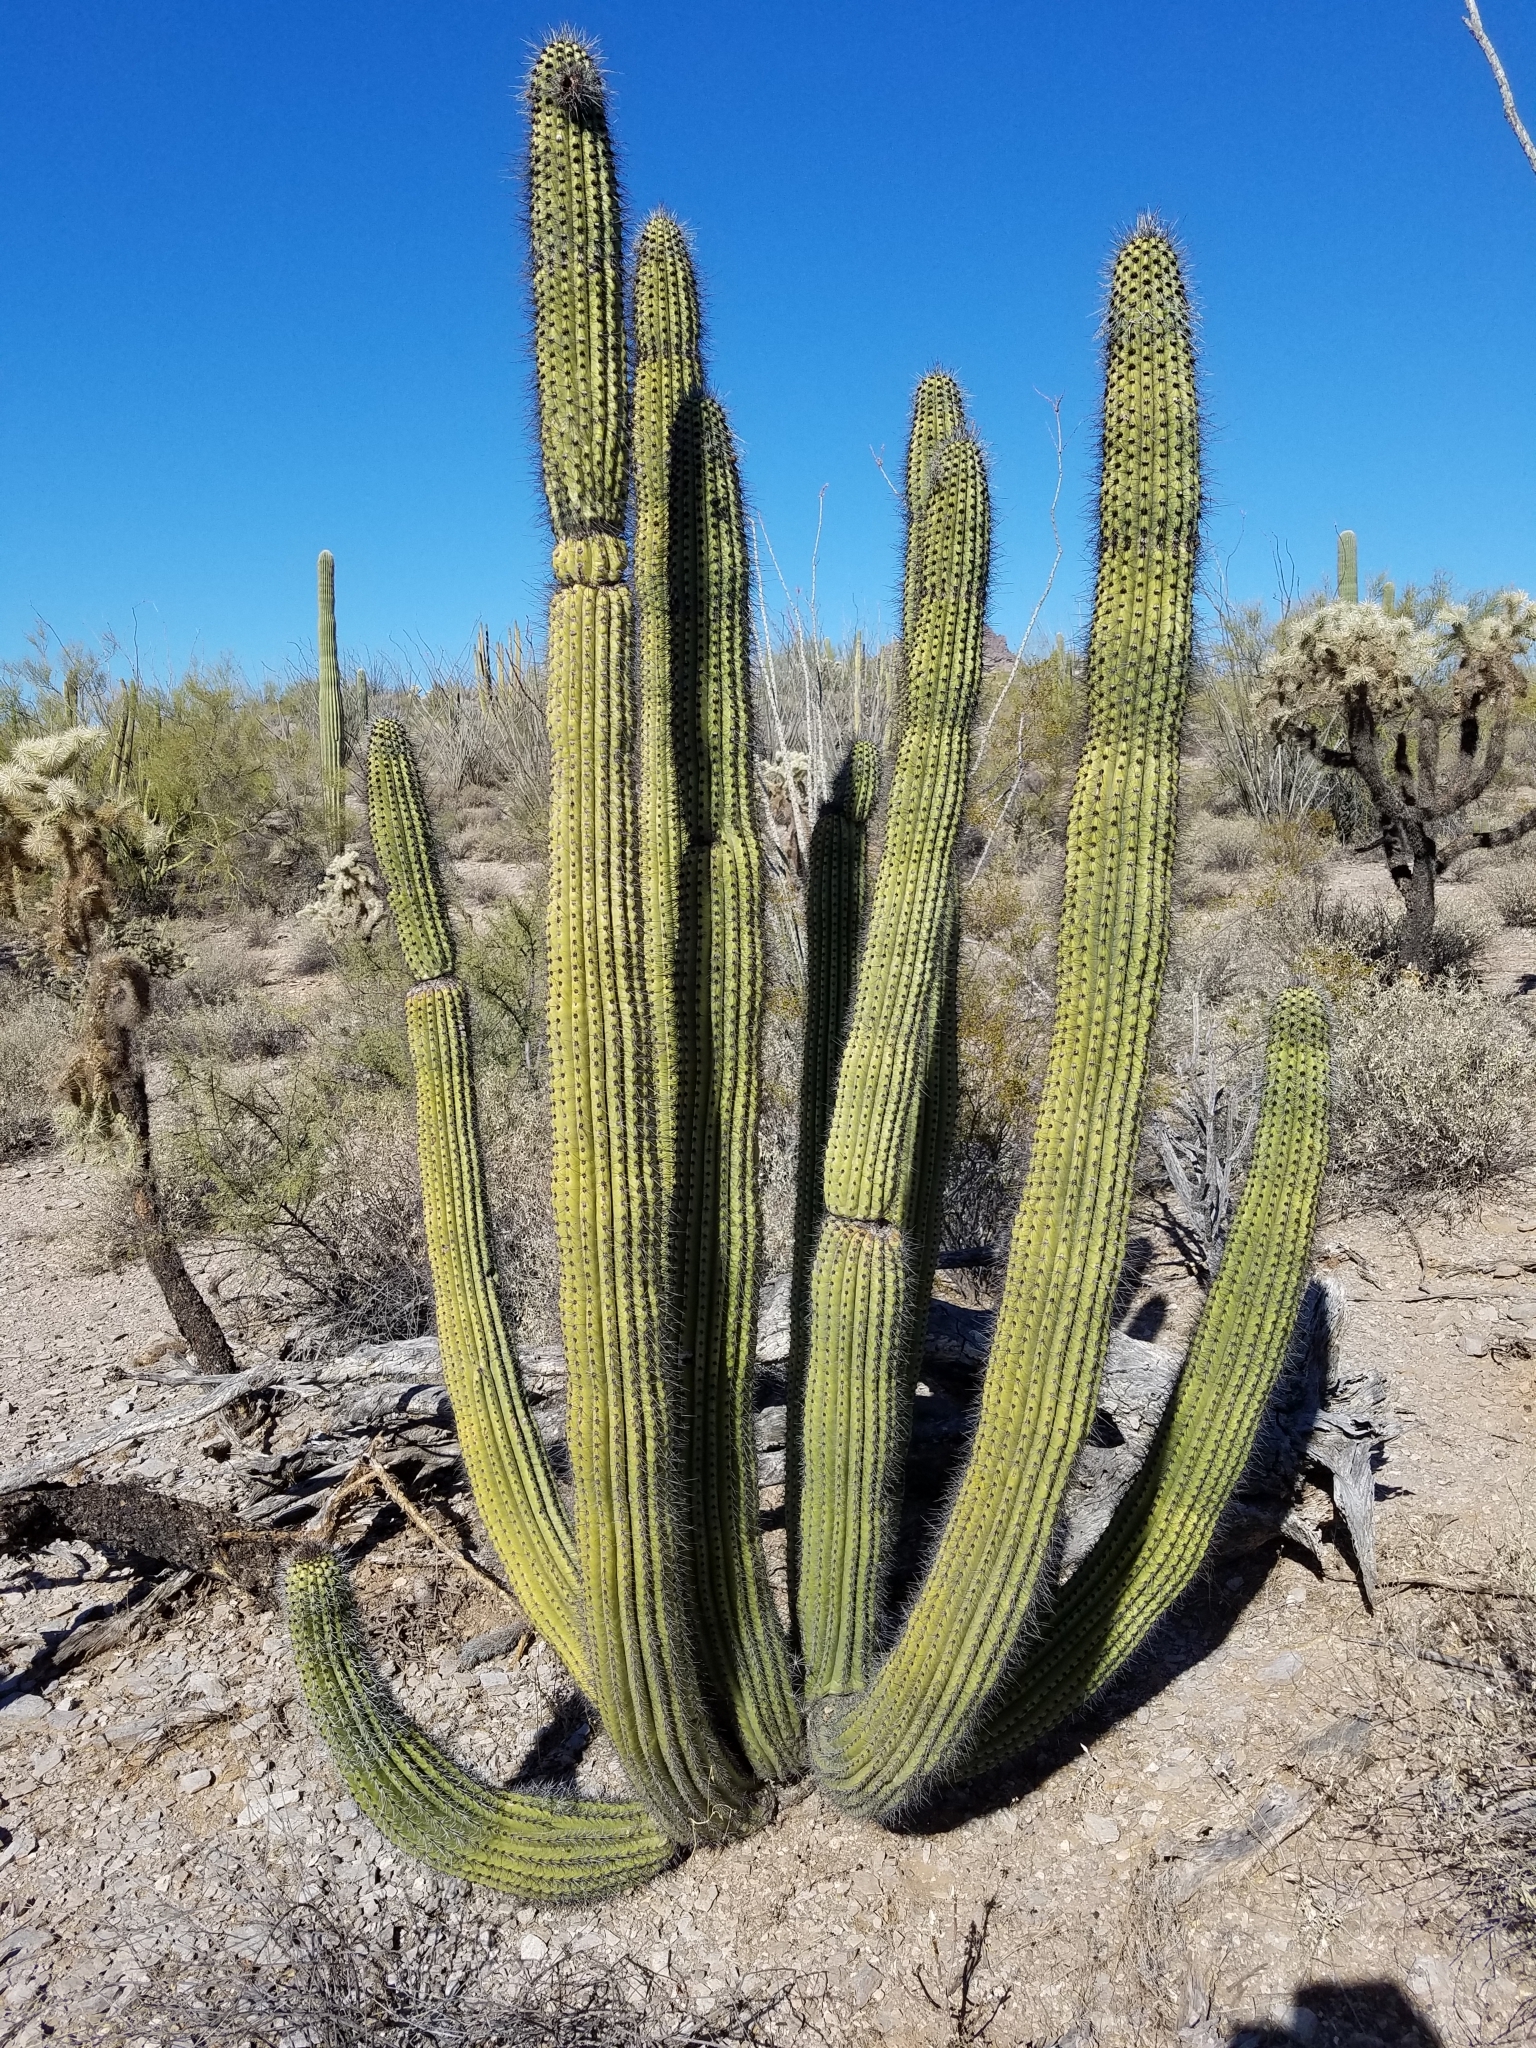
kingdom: Plantae
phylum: Tracheophyta
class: Magnoliopsida
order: Caryophyllales
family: Cactaceae
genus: Stenocereus
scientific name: Stenocereus thurberi
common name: Organ pipe cactus
